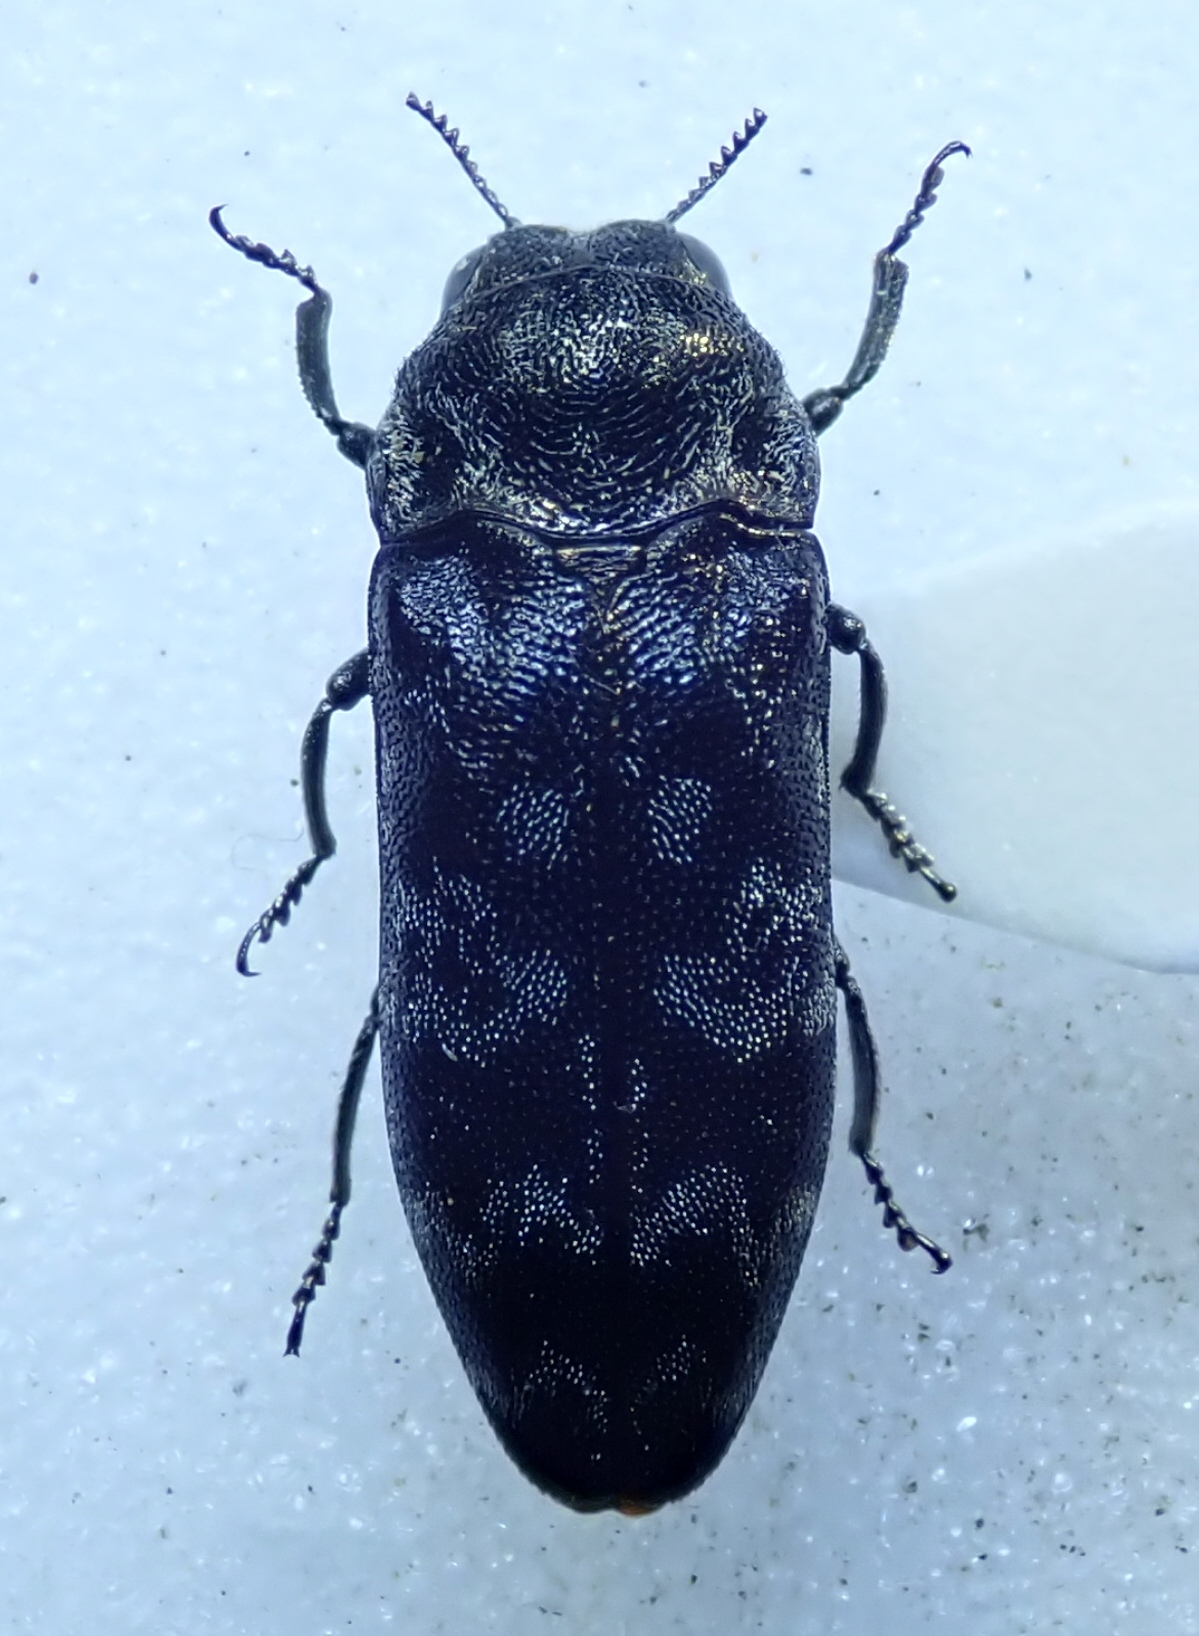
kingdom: Animalia
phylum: Arthropoda
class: Insecta
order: Coleoptera
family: Buprestidae
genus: Coraebus
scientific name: Coraebus rubi
